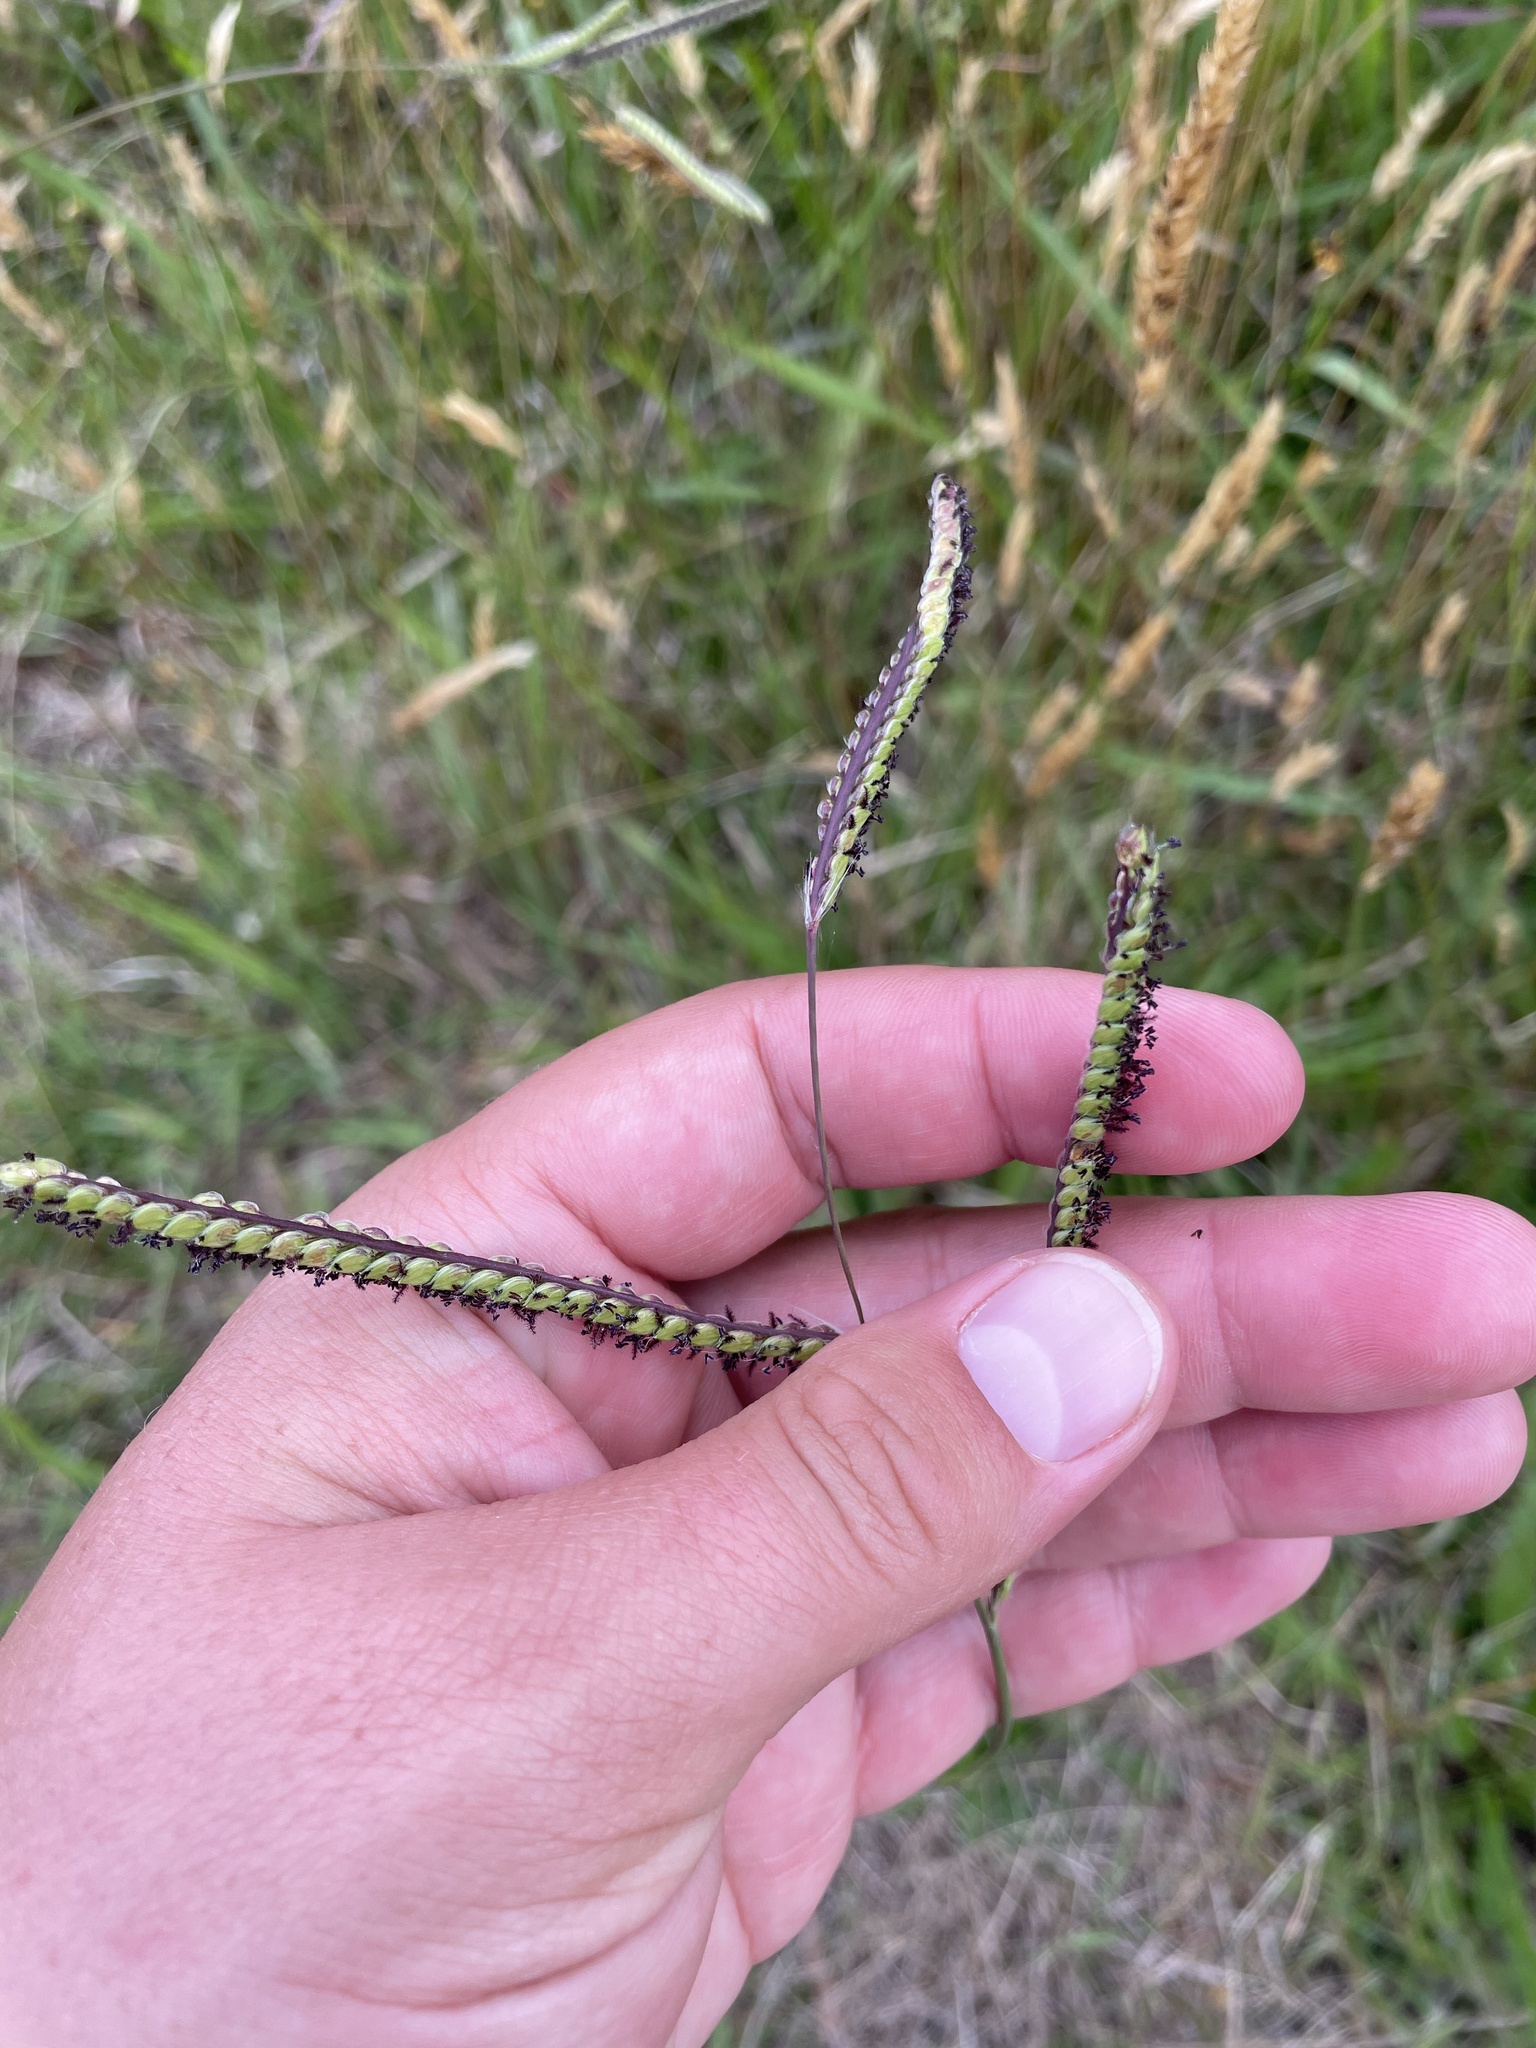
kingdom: Plantae
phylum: Tracheophyta
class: Liliopsida
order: Poales
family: Poaceae
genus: Paspalum
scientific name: Paspalum dilatatum
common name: Dallisgrass
